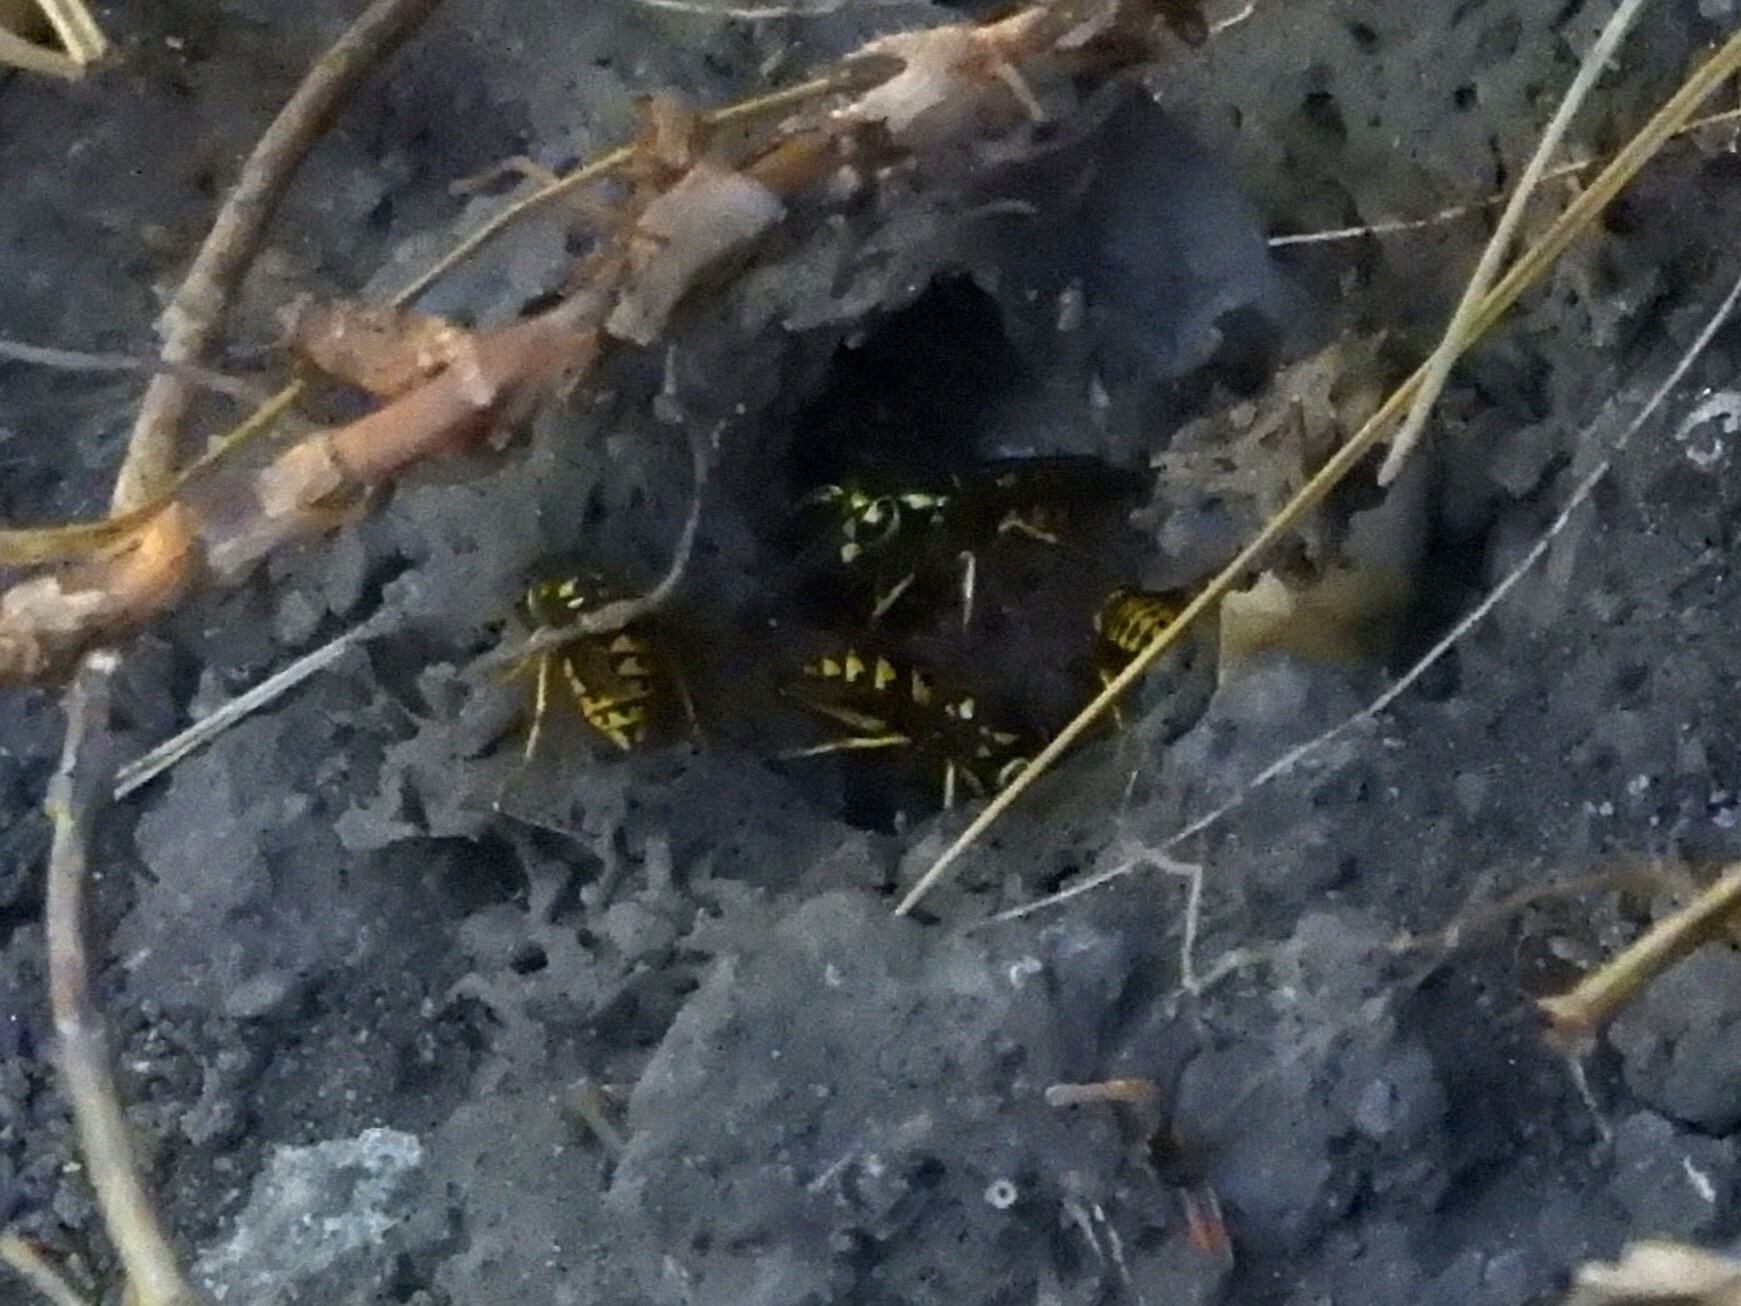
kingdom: Animalia
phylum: Arthropoda
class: Insecta
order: Hymenoptera
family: Vespidae
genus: Vespula
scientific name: Vespula pensylvanica
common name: Western yellowjacket
